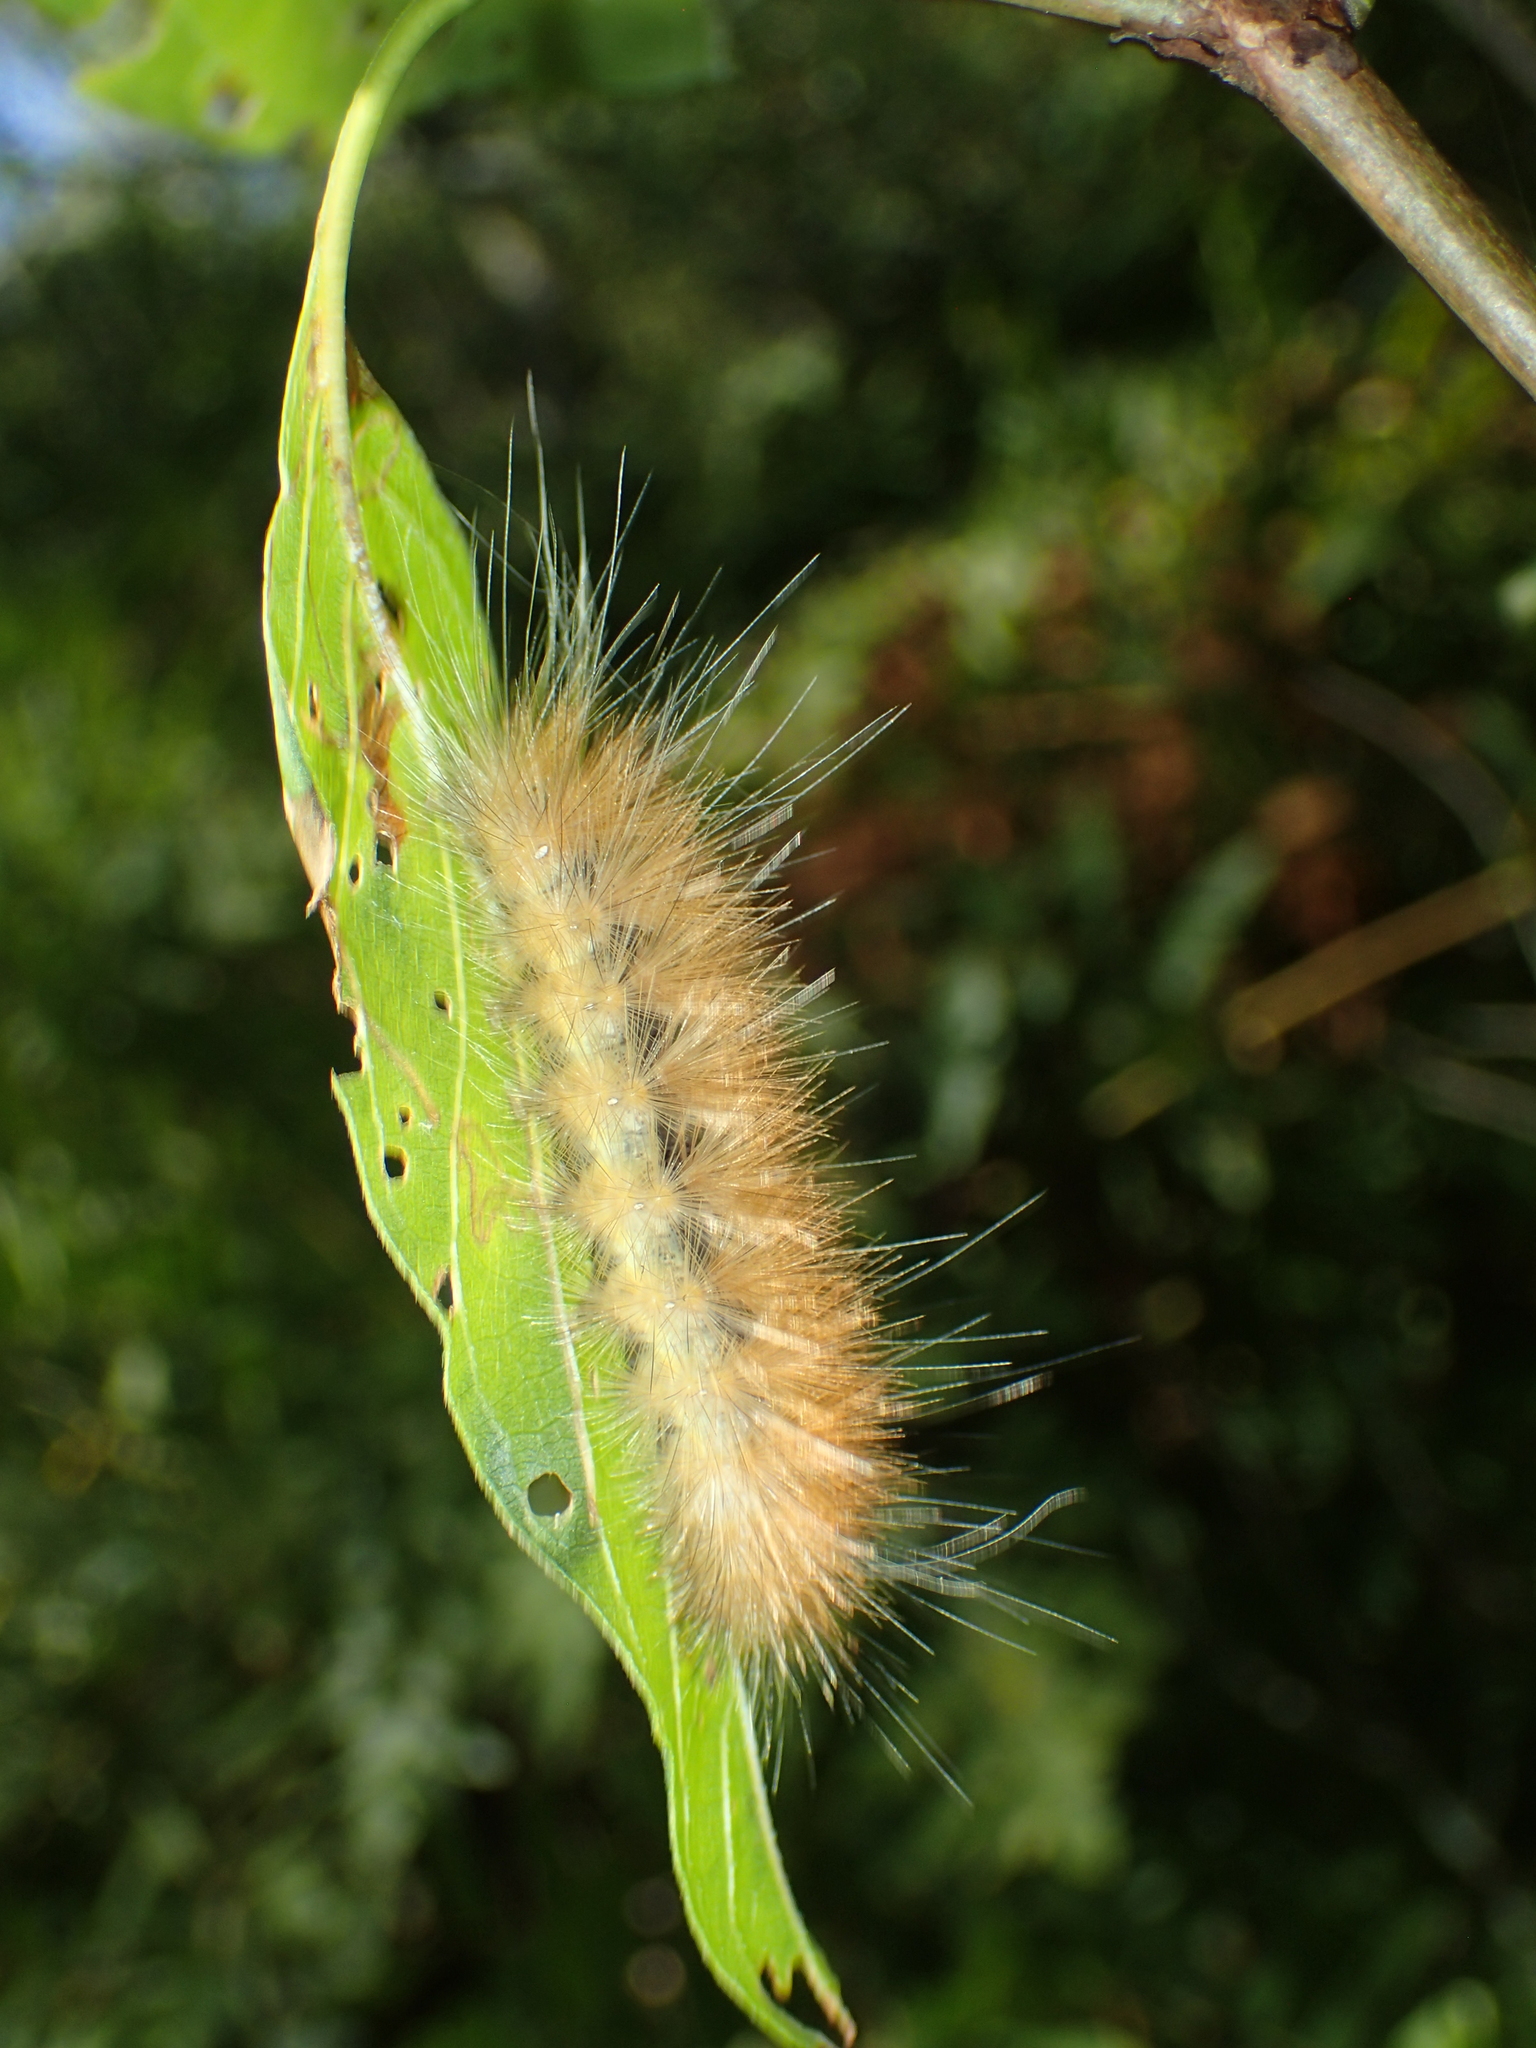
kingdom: Animalia
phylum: Arthropoda
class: Insecta
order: Lepidoptera
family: Erebidae
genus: Spilosoma
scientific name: Spilosoma virginica
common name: Virginia tiger moth
